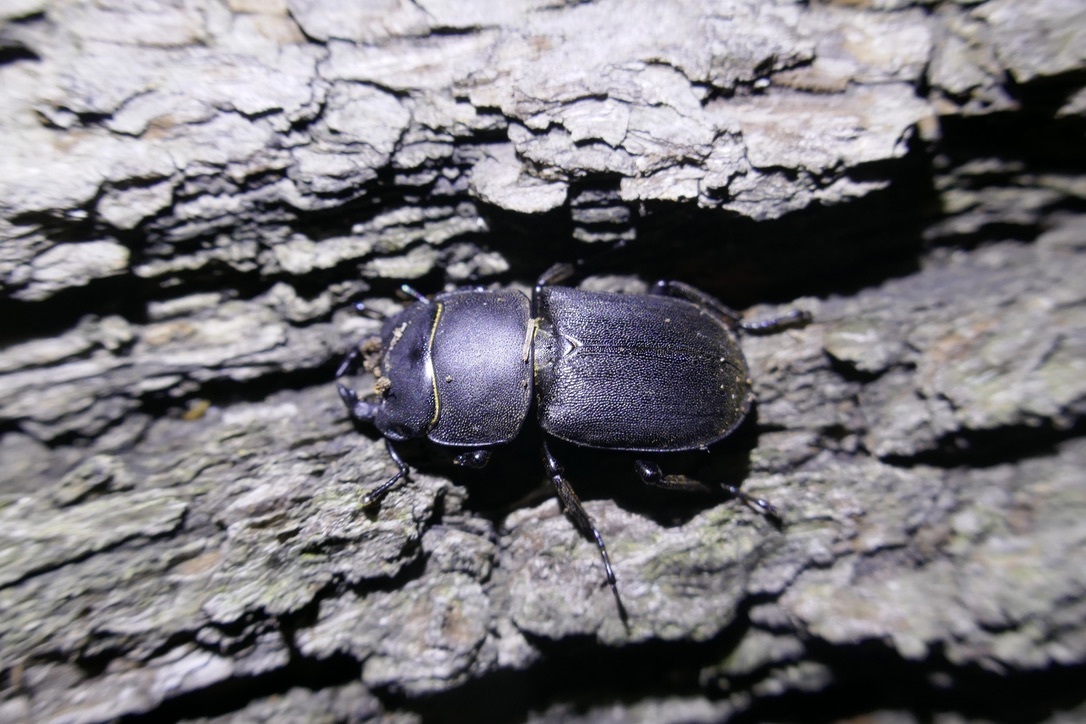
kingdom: Animalia
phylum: Arthropoda
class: Insecta
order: Coleoptera
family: Lucanidae
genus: Dorcus
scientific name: Dorcus parallelipipedus
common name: Lesser stag beetle
